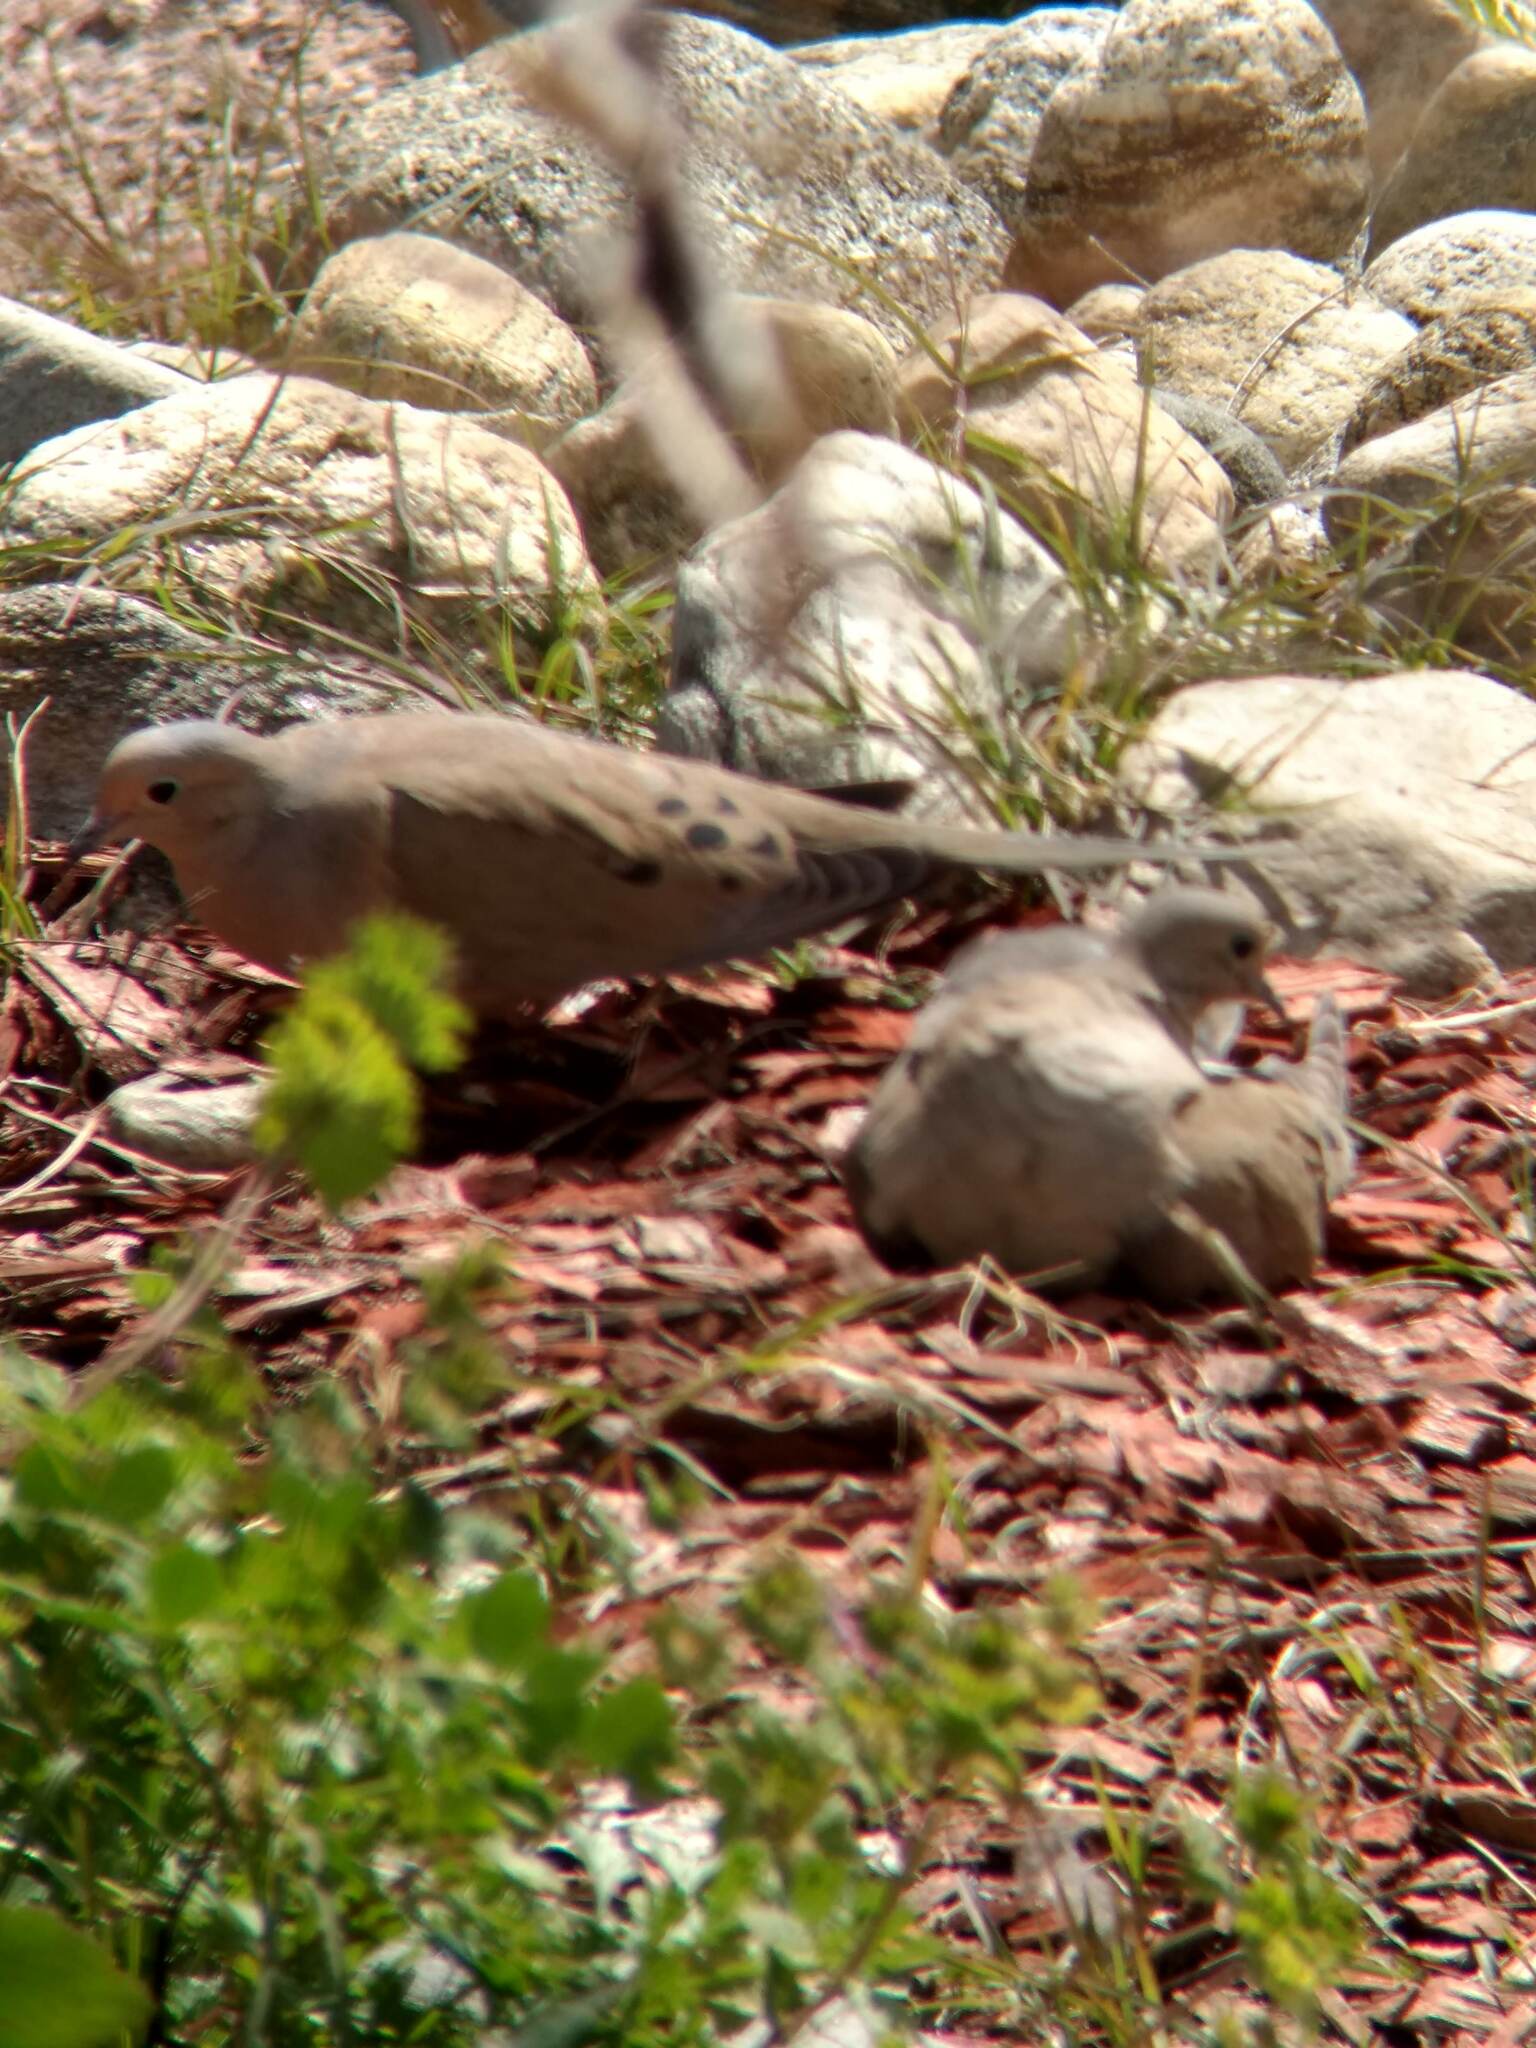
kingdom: Animalia
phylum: Chordata
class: Aves
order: Columbiformes
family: Columbidae
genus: Zenaida
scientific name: Zenaida macroura
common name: Mourning dove
